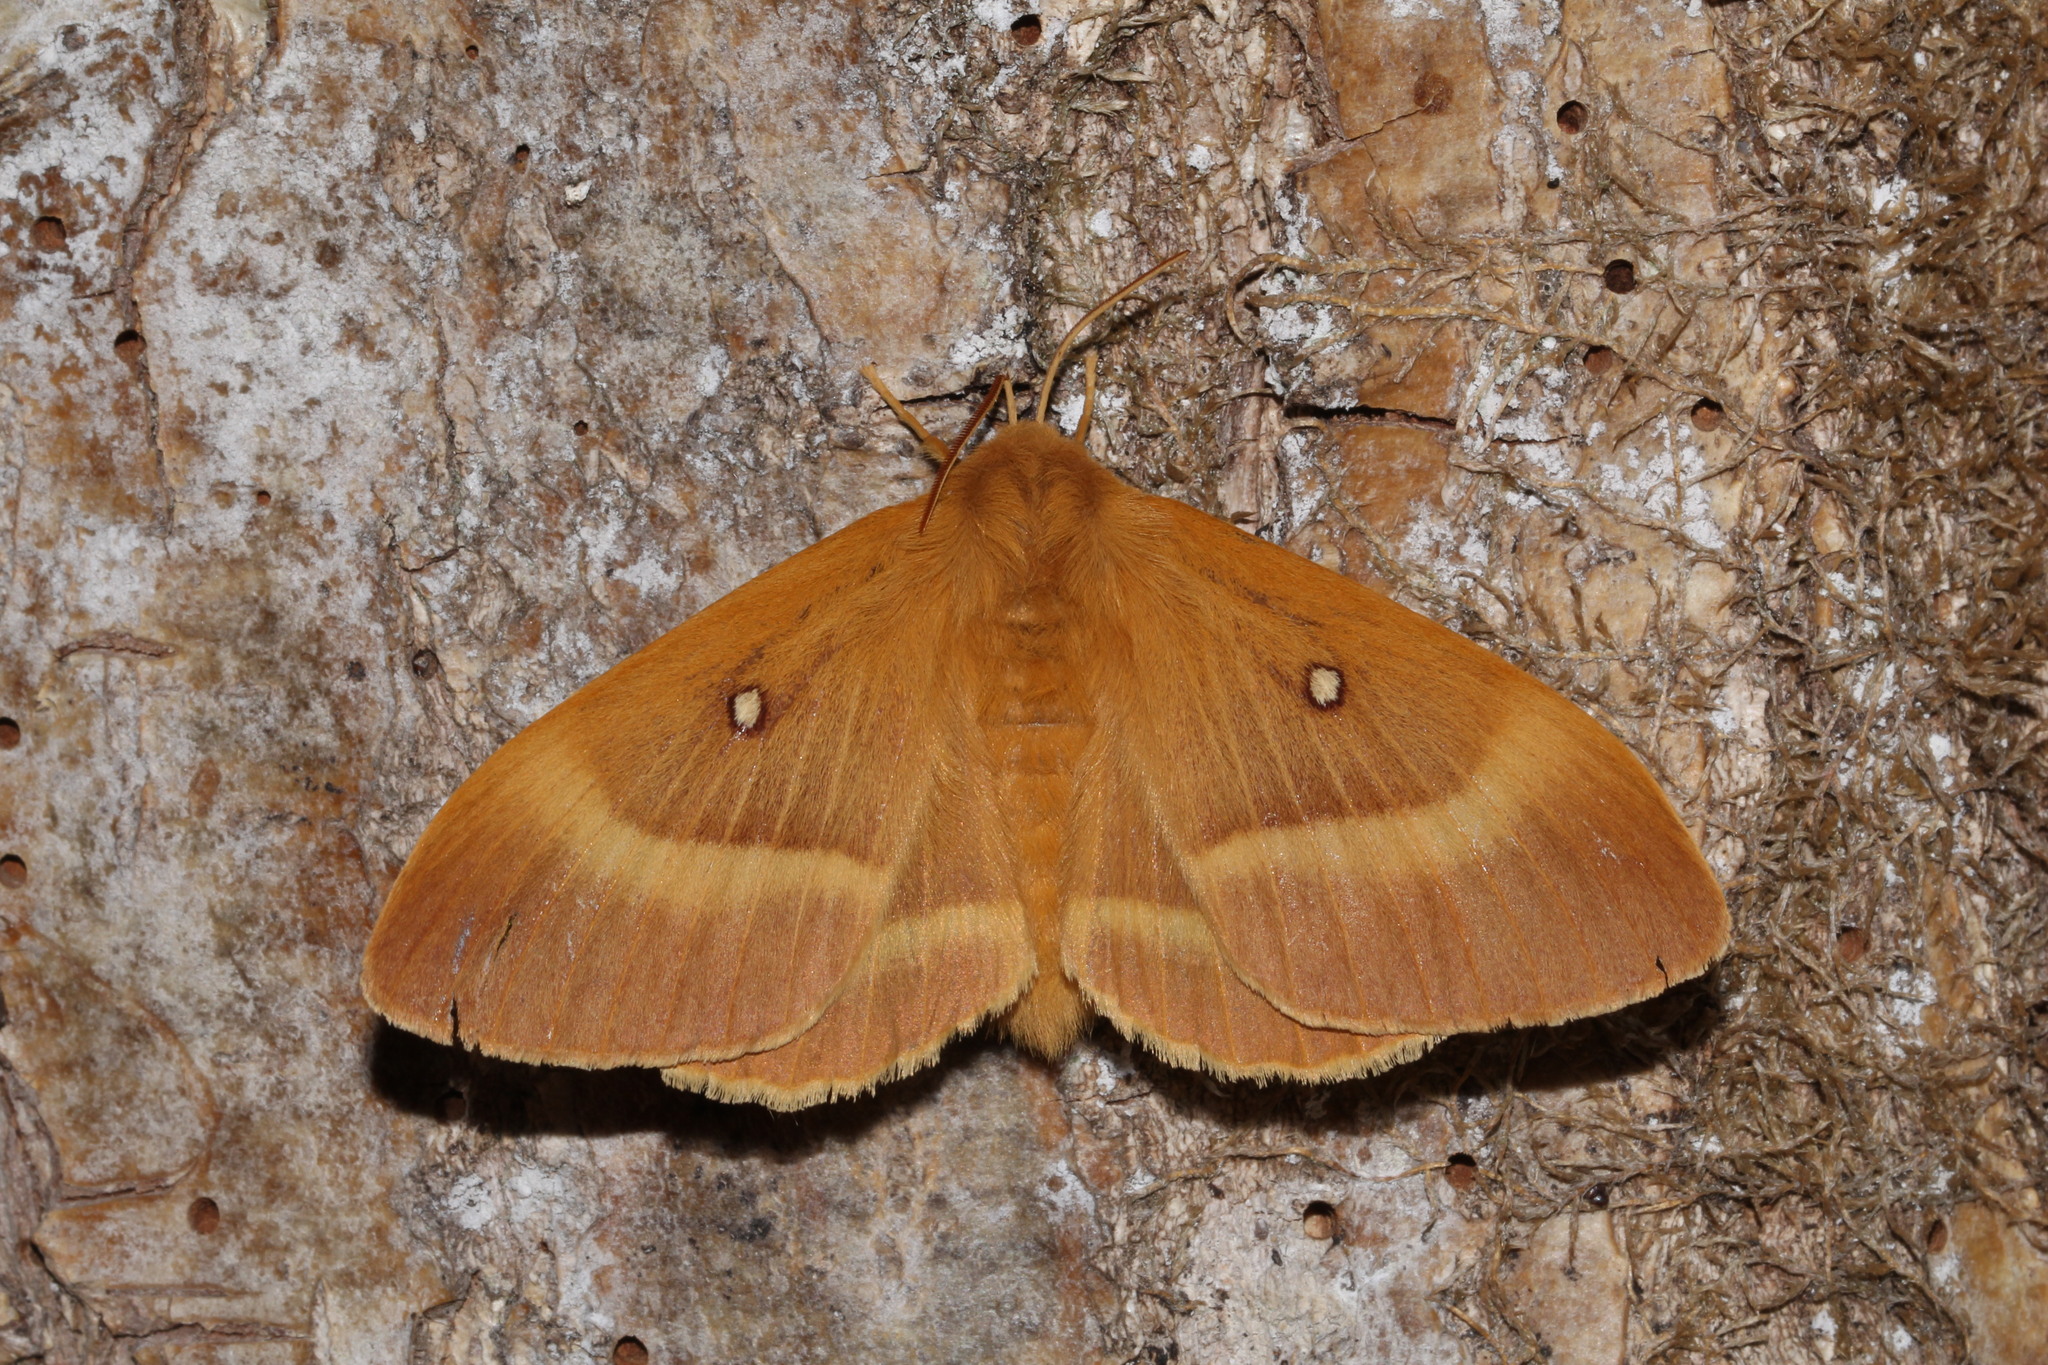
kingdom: Animalia
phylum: Arthropoda
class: Insecta
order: Lepidoptera
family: Lasiocampidae
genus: Lasiocampa
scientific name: Lasiocampa quercus
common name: Oak eggar
